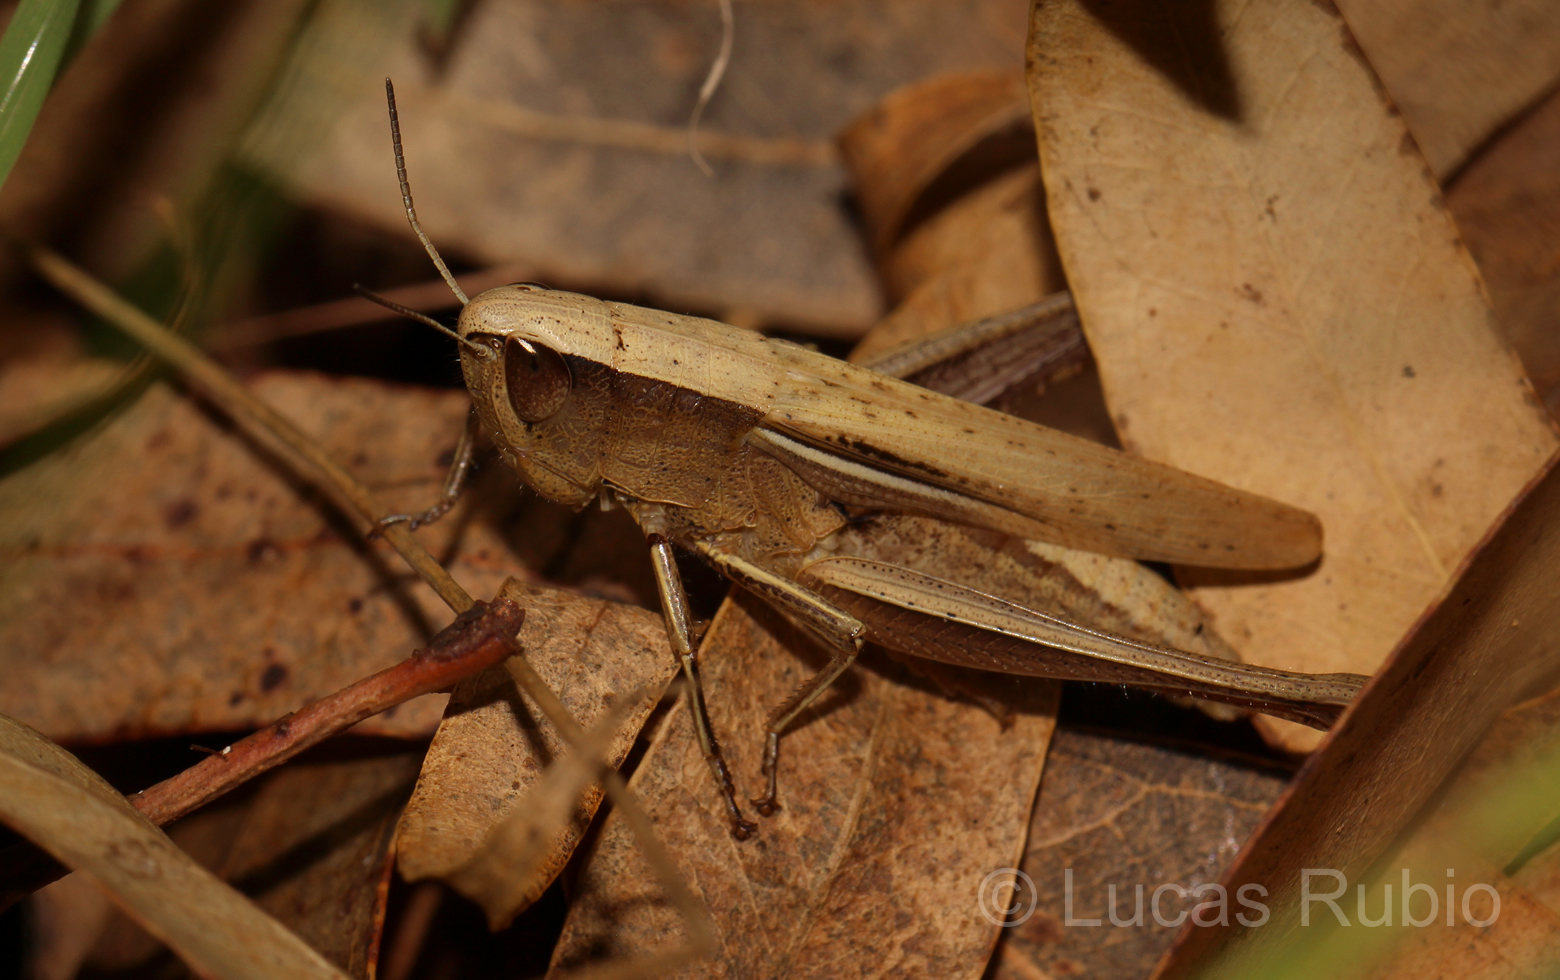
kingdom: Animalia
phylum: Arthropoda
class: Insecta
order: Orthoptera
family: Acrididae
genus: Amblytropidia
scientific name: Amblytropidia australis
